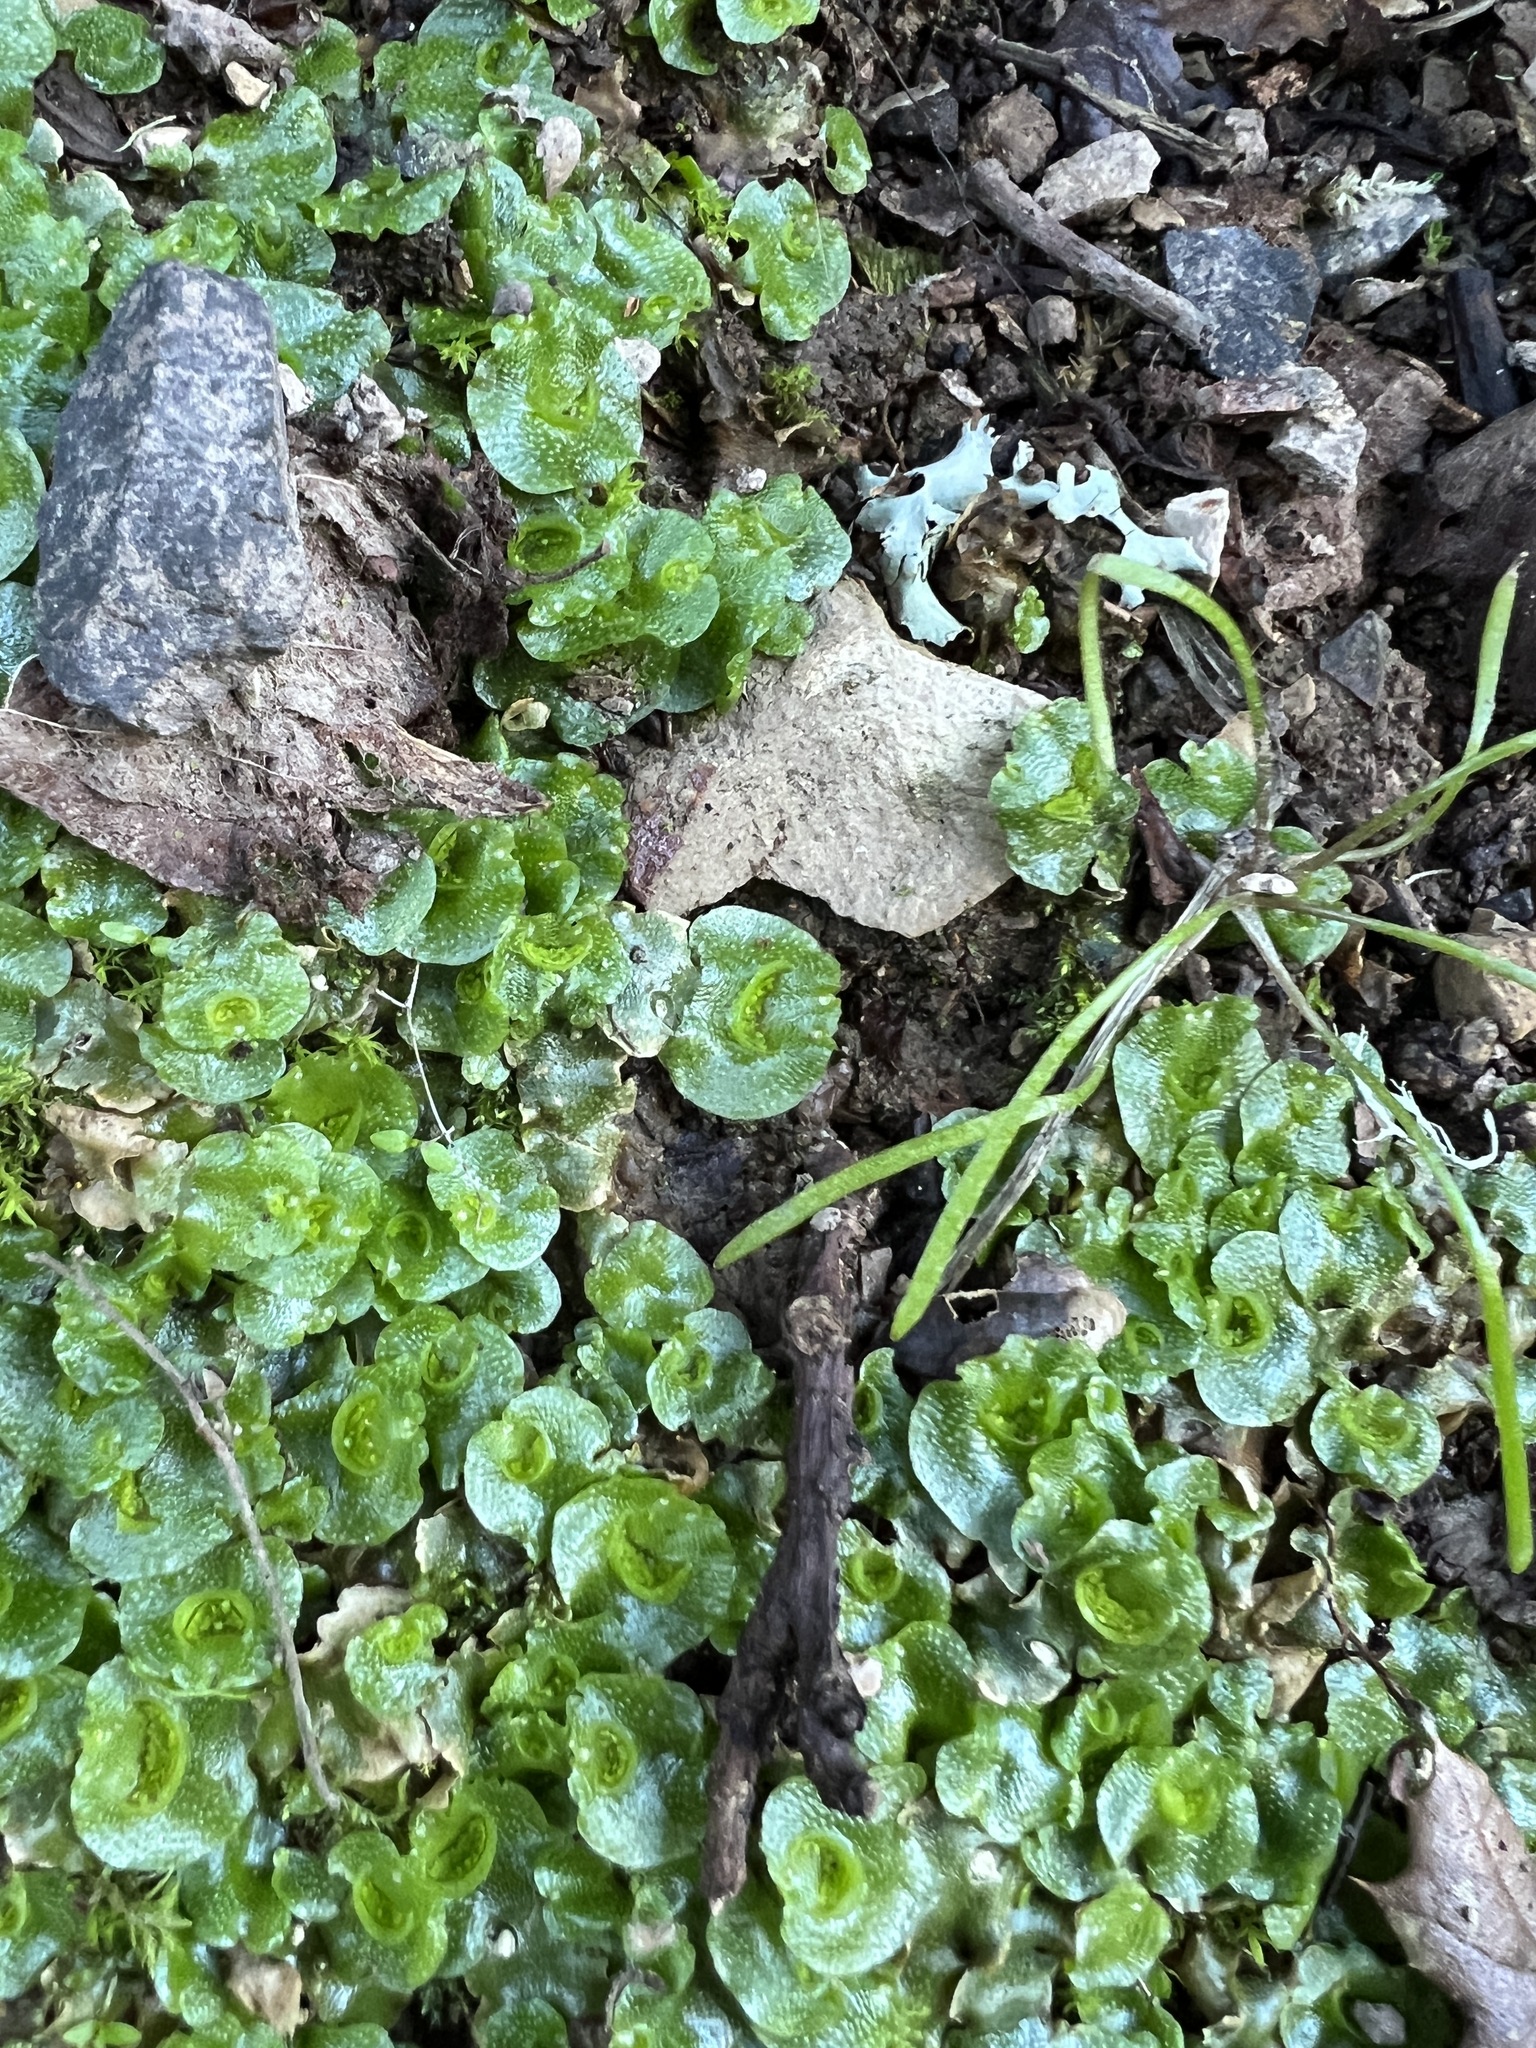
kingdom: Plantae
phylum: Marchantiophyta
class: Marchantiopsida
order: Lunulariales
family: Lunulariaceae
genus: Lunularia
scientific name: Lunularia cruciata
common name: Crescent-cup liverwort
